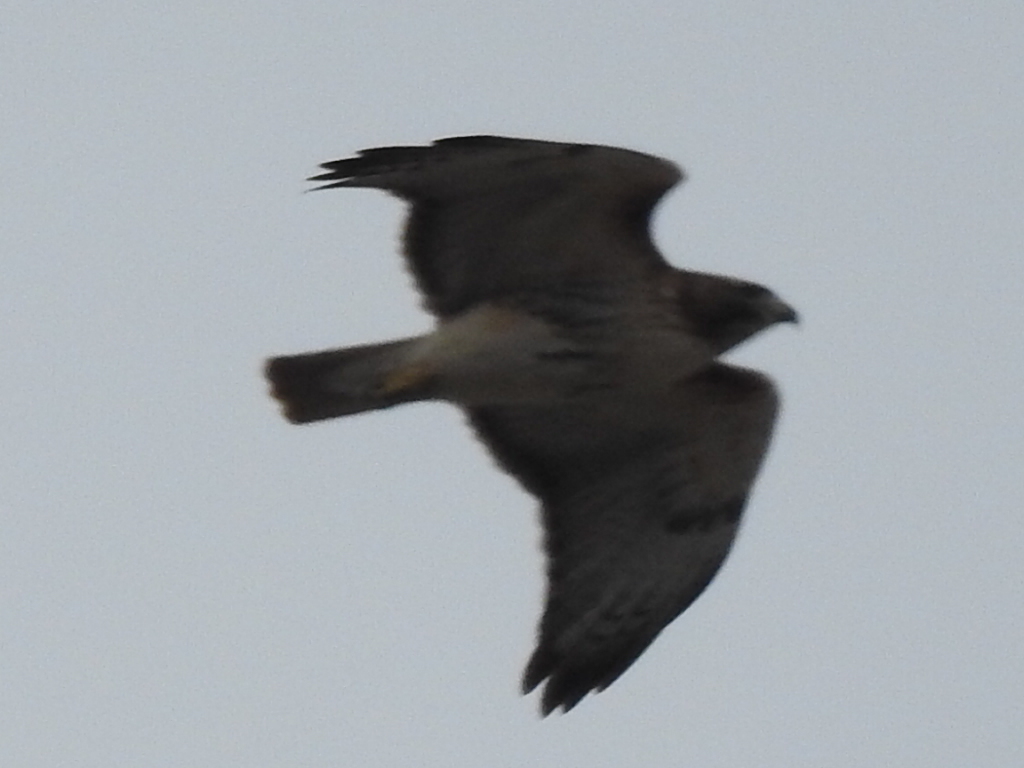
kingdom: Animalia
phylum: Chordata
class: Aves
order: Accipitriformes
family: Accipitridae
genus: Buteo
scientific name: Buteo jamaicensis
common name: Red-tailed hawk
